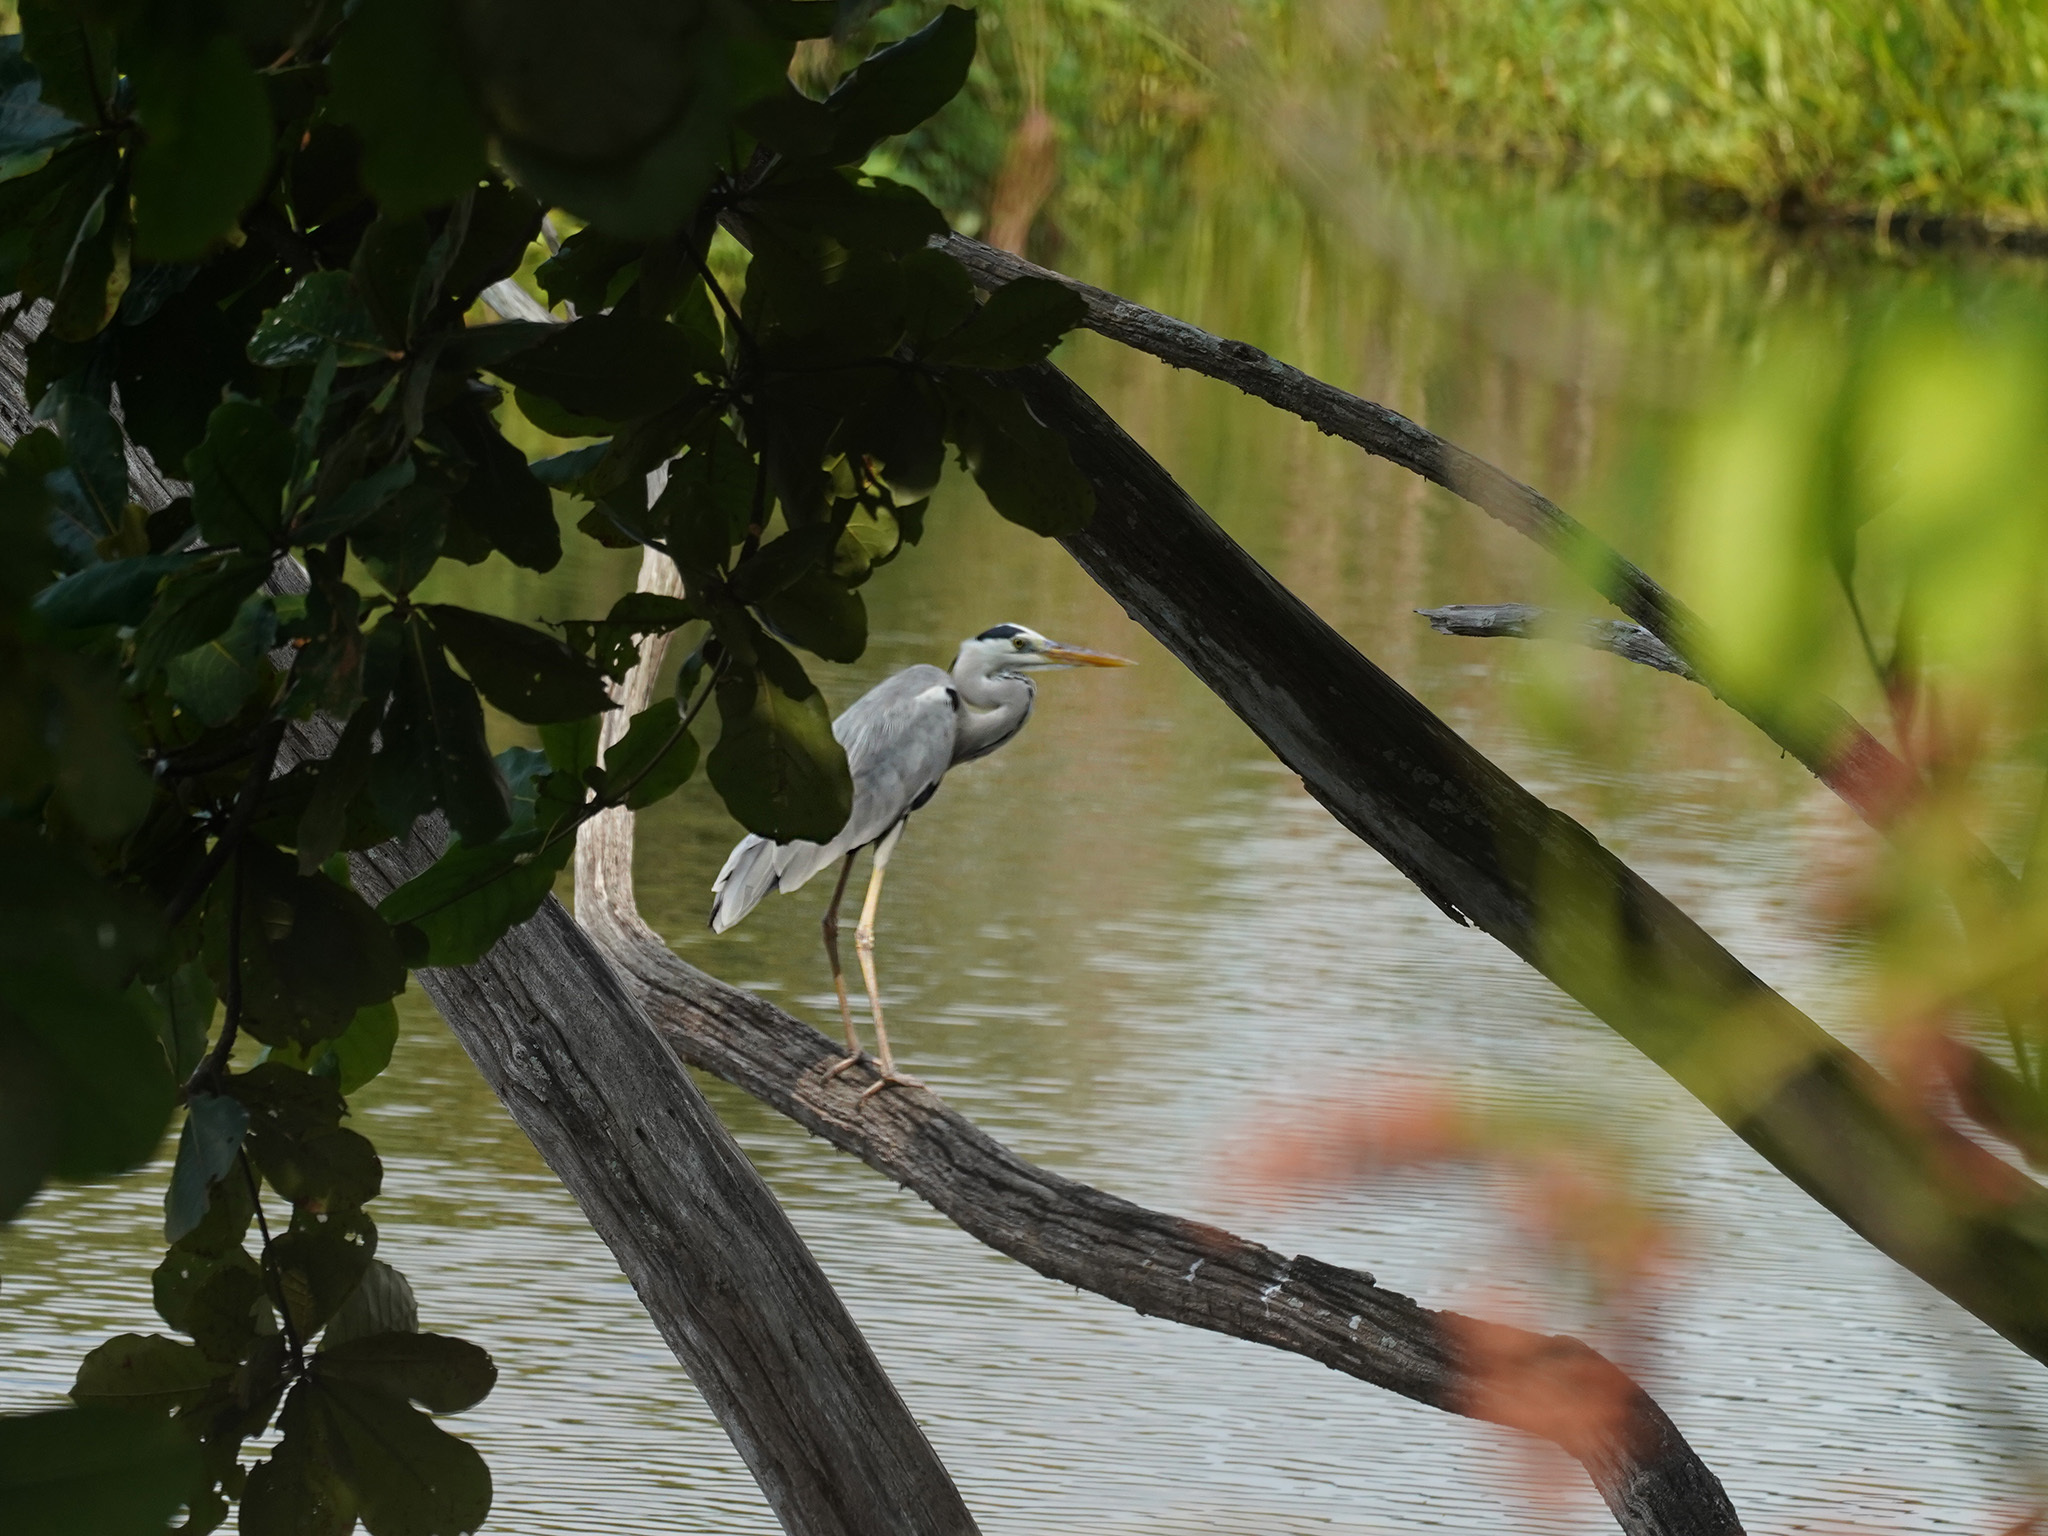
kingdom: Animalia
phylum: Chordata
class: Aves
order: Pelecaniformes
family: Ardeidae
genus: Ardea
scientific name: Ardea cinerea
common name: Grey heron
